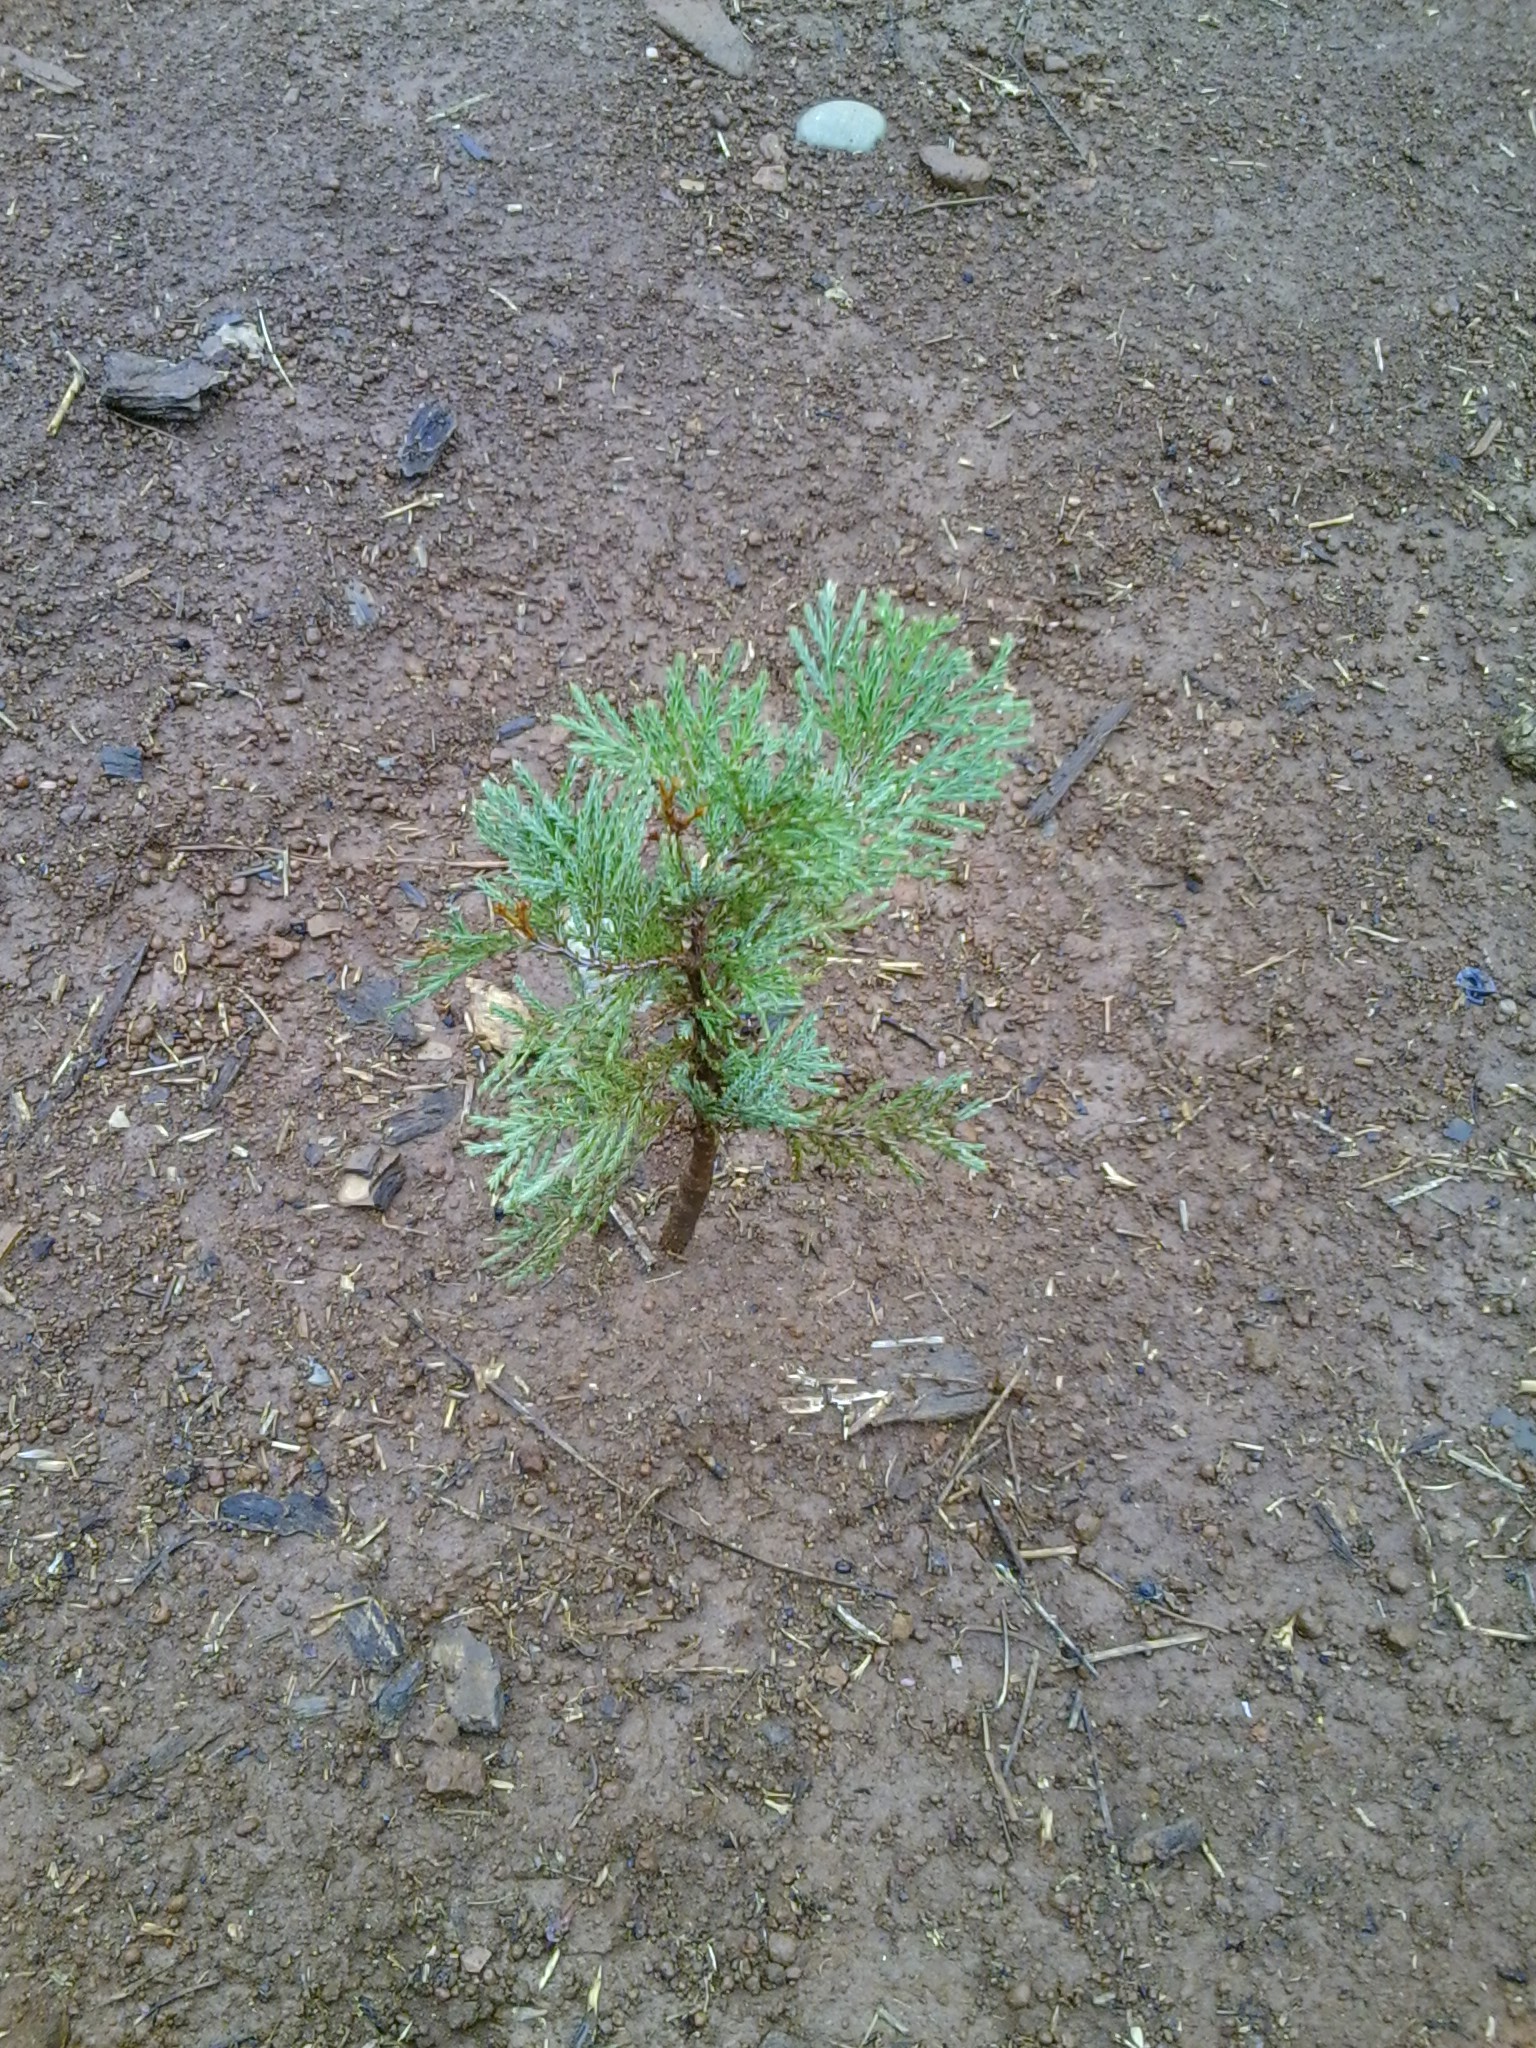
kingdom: Plantae
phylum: Tracheophyta
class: Pinopsida
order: Pinales
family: Cupressaceae
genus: Calocedrus
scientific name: Calocedrus decurrens
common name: Californian incense-cedar
